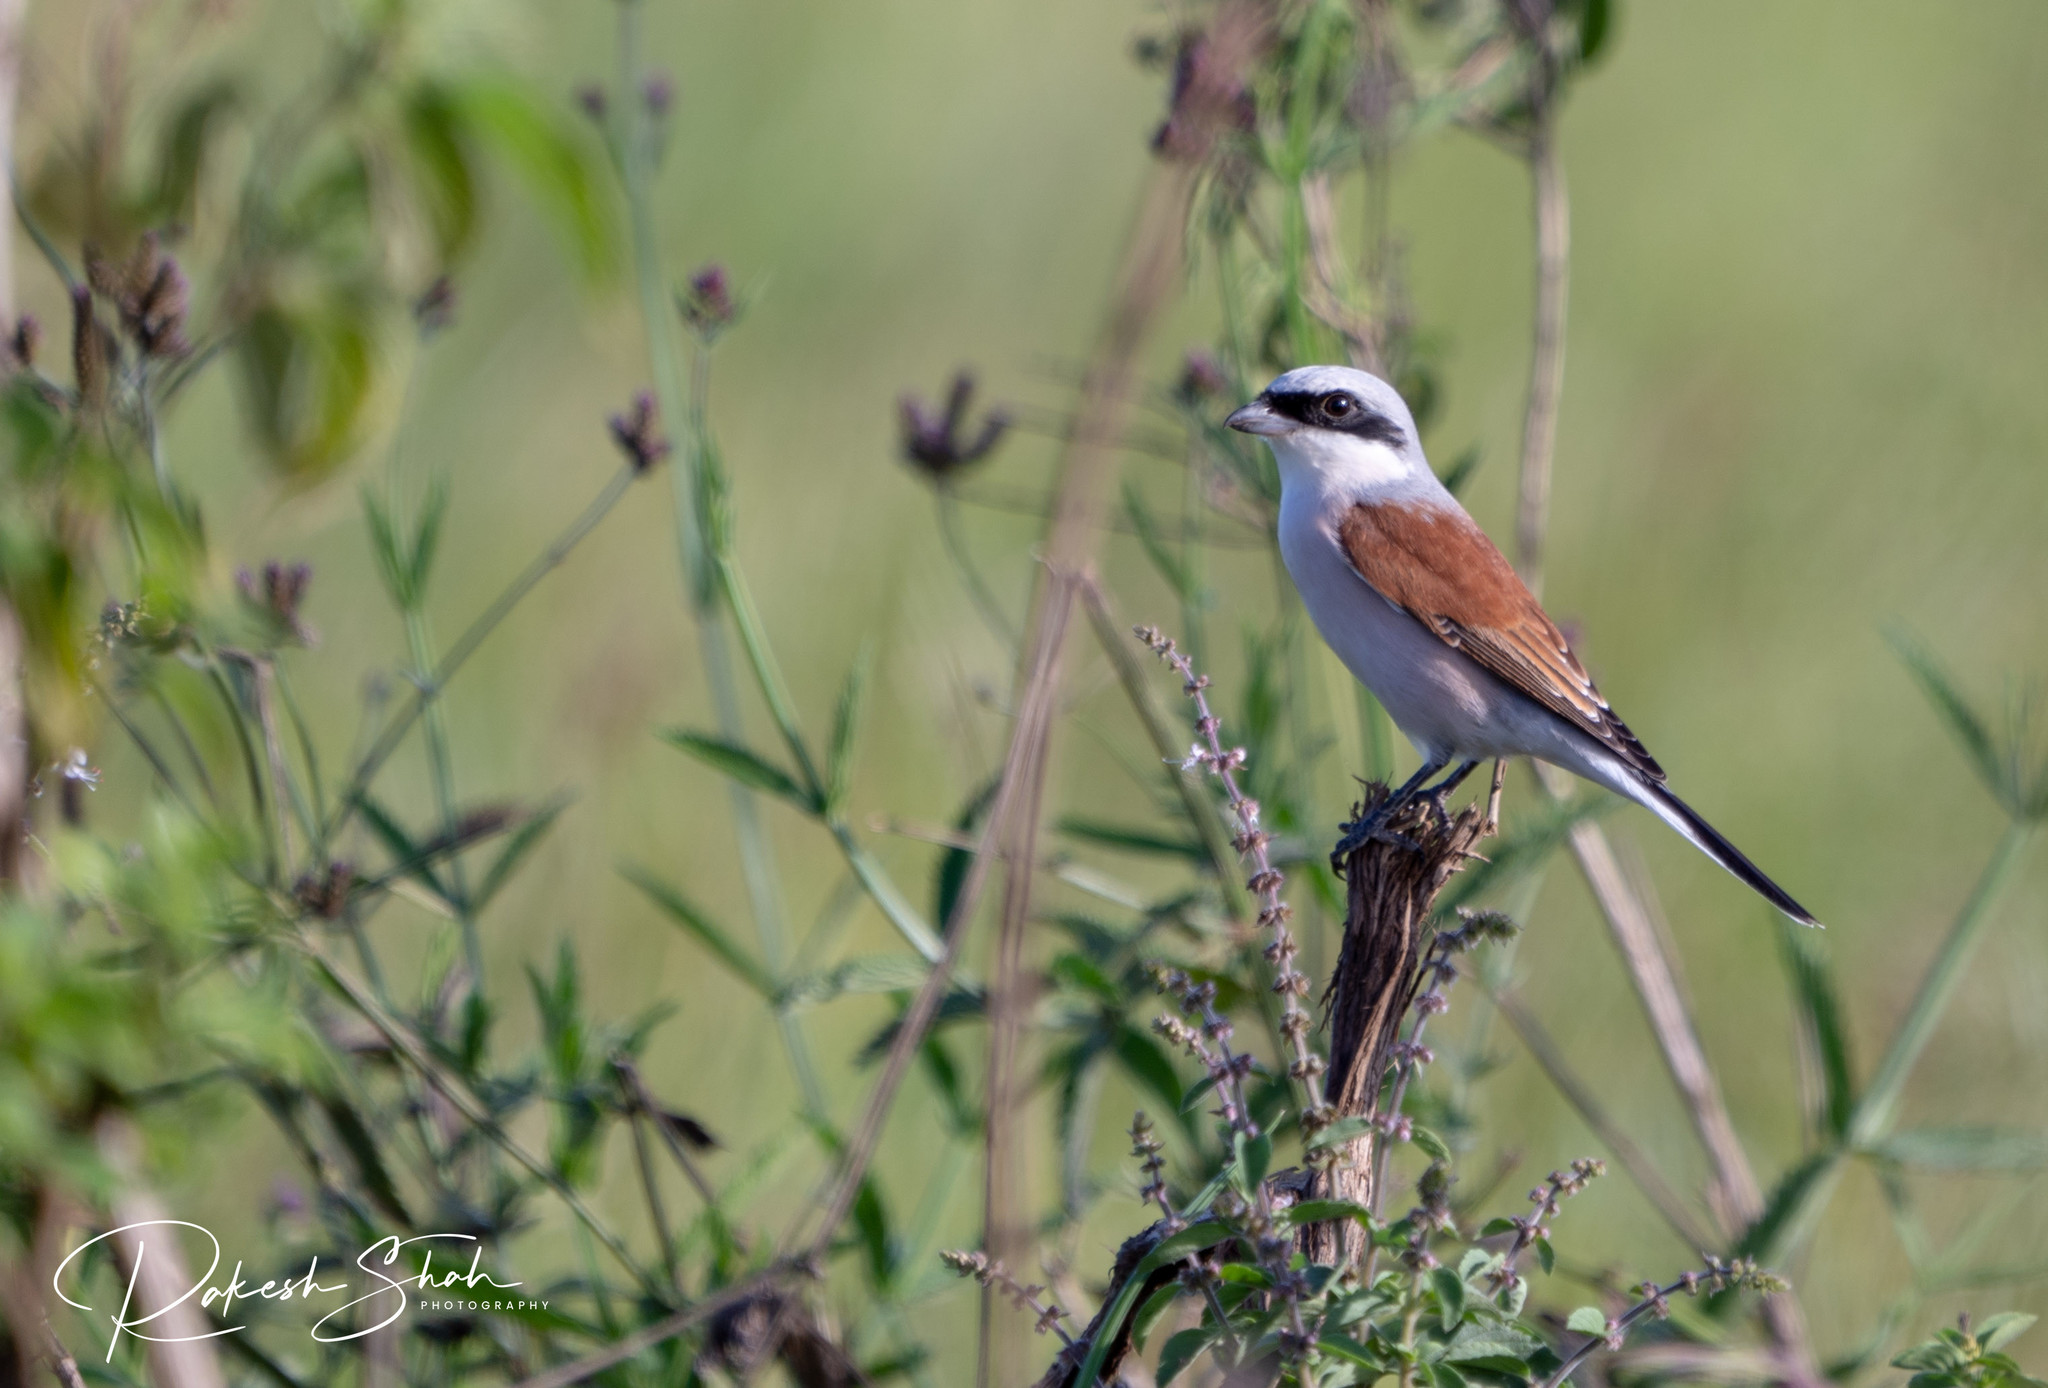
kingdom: Animalia
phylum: Chordata
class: Aves
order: Passeriformes
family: Laniidae
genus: Lanius
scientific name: Lanius collurio
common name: Red-backed shrike
